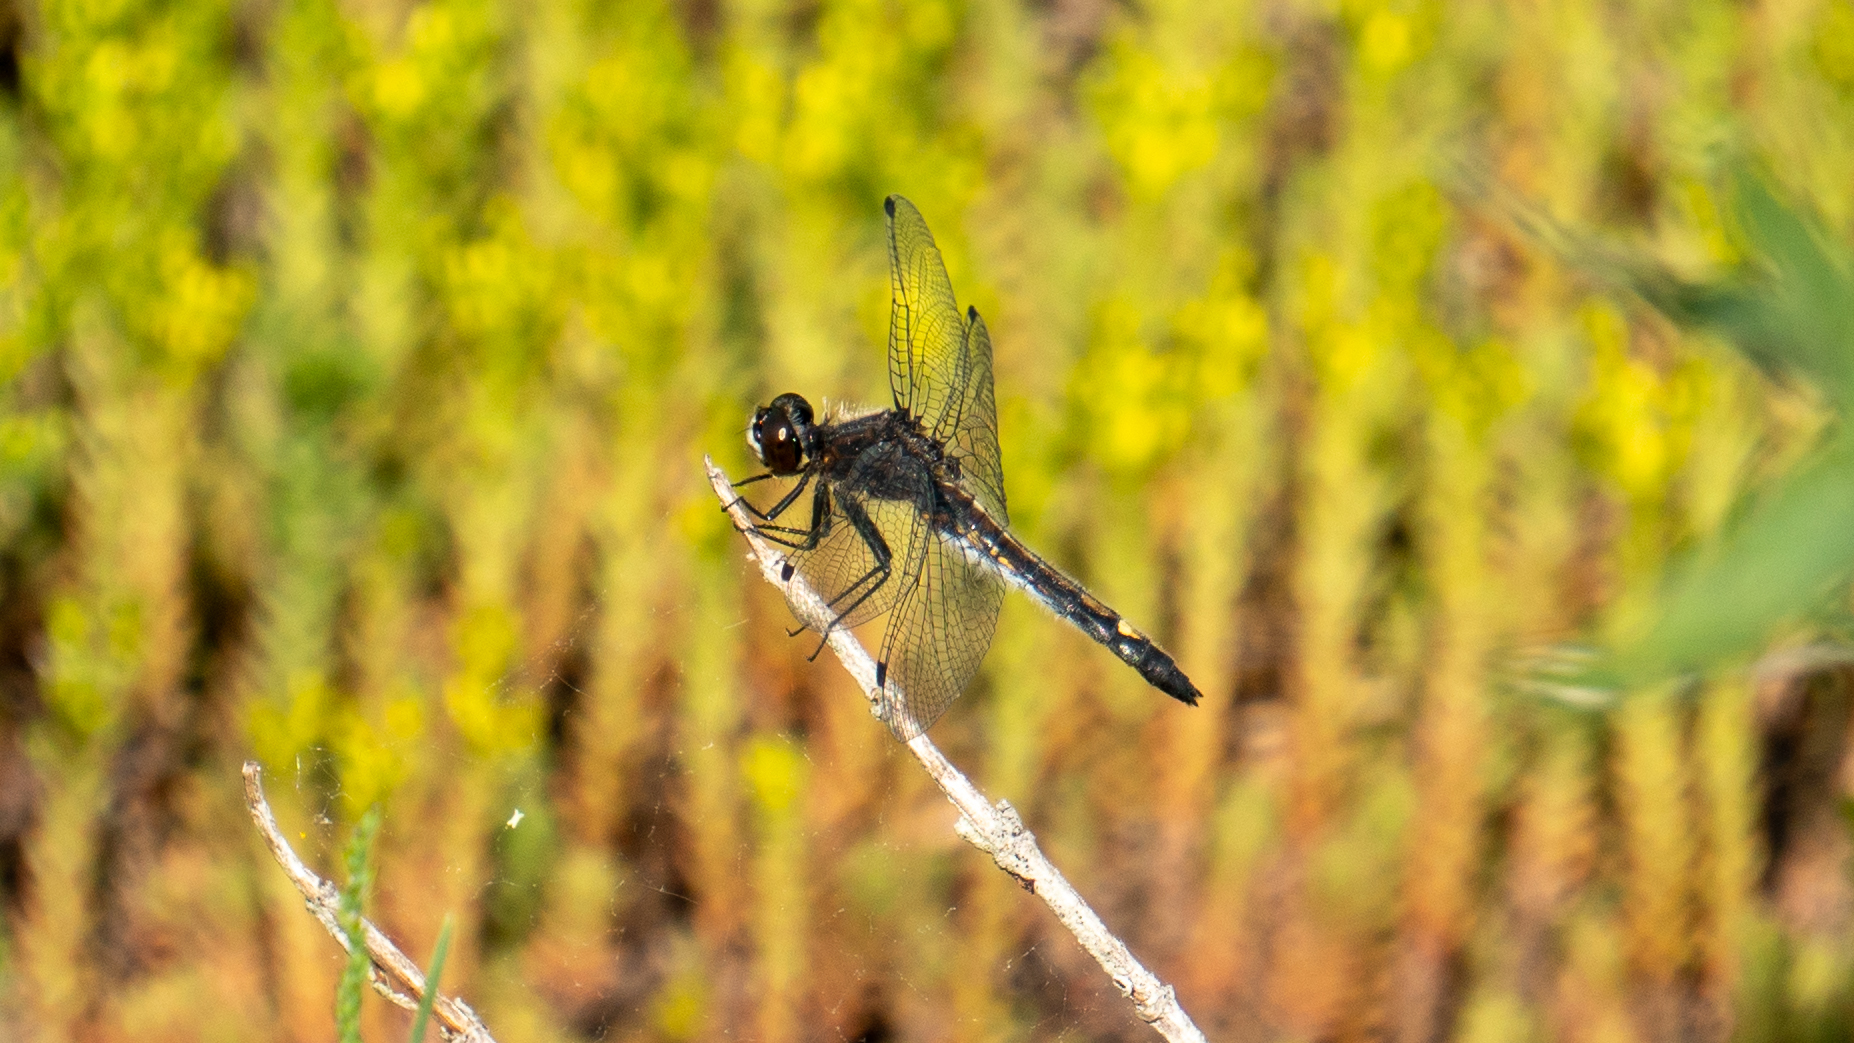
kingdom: Animalia
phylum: Arthropoda
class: Insecta
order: Odonata
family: Libellulidae
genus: Leucorrhinia
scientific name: Leucorrhinia intacta
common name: Dot-tailed whiteface
